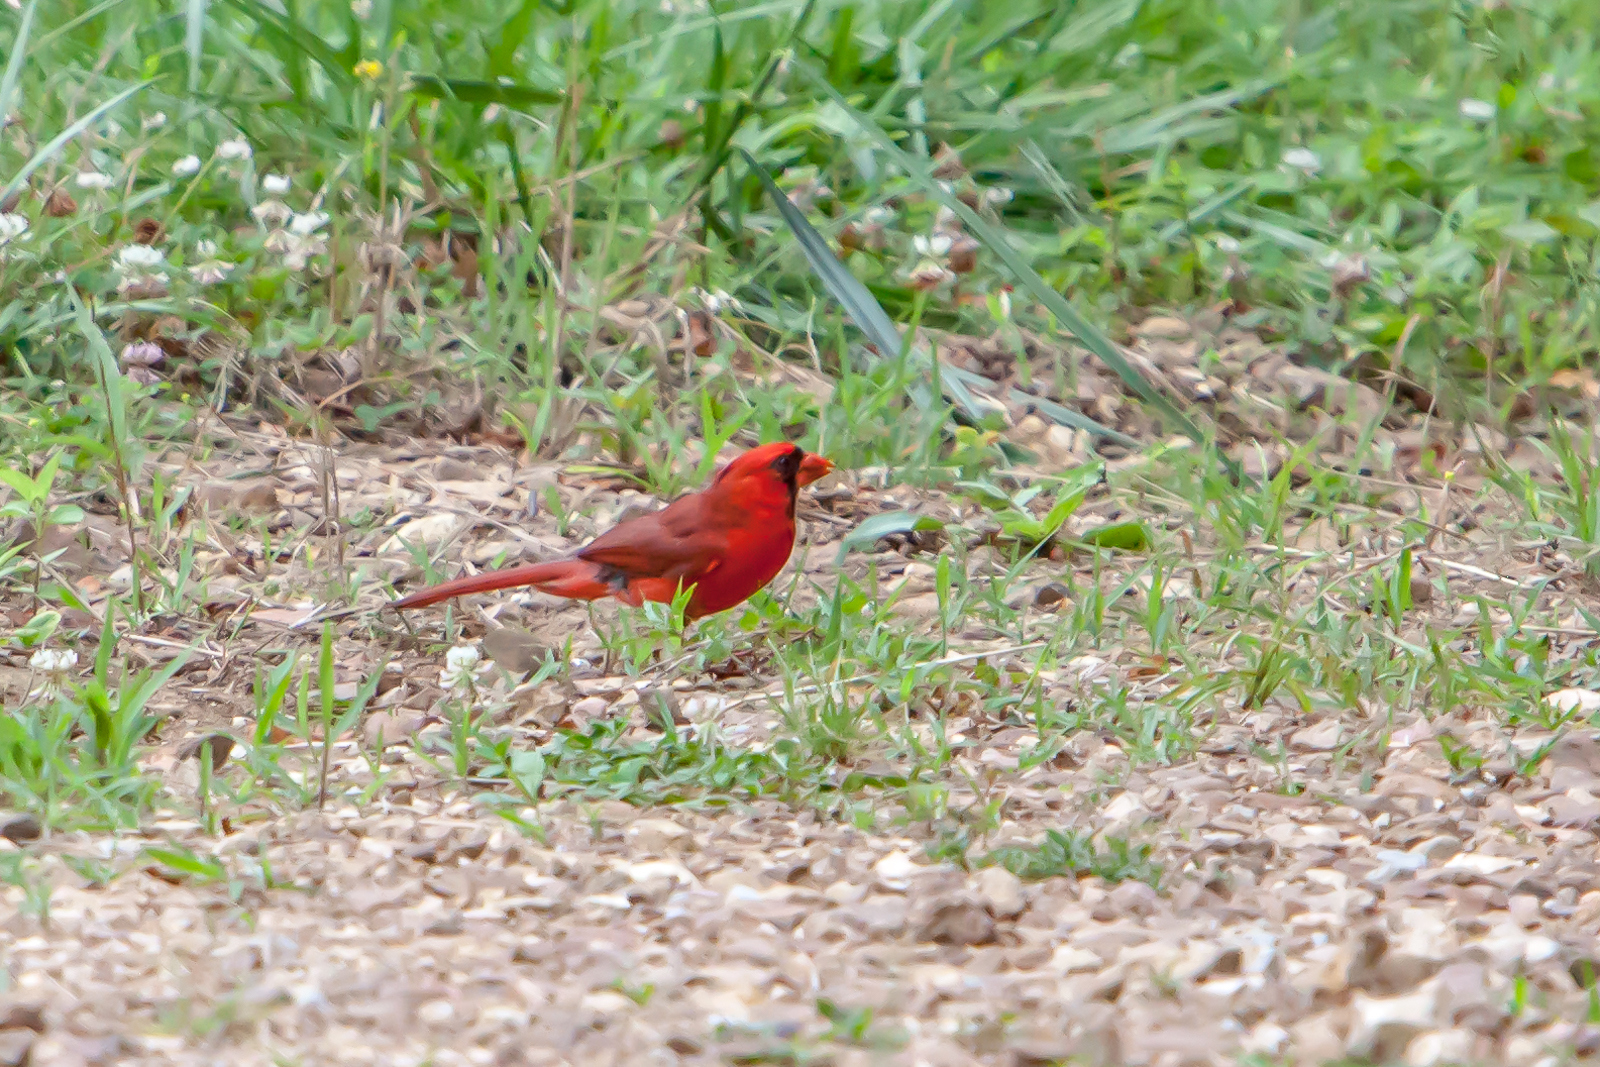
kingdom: Animalia
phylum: Chordata
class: Aves
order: Passeriformes
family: Cardinalidae
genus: Cardinalis
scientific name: Cardinalis cardinalis
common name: Northern cardinal
